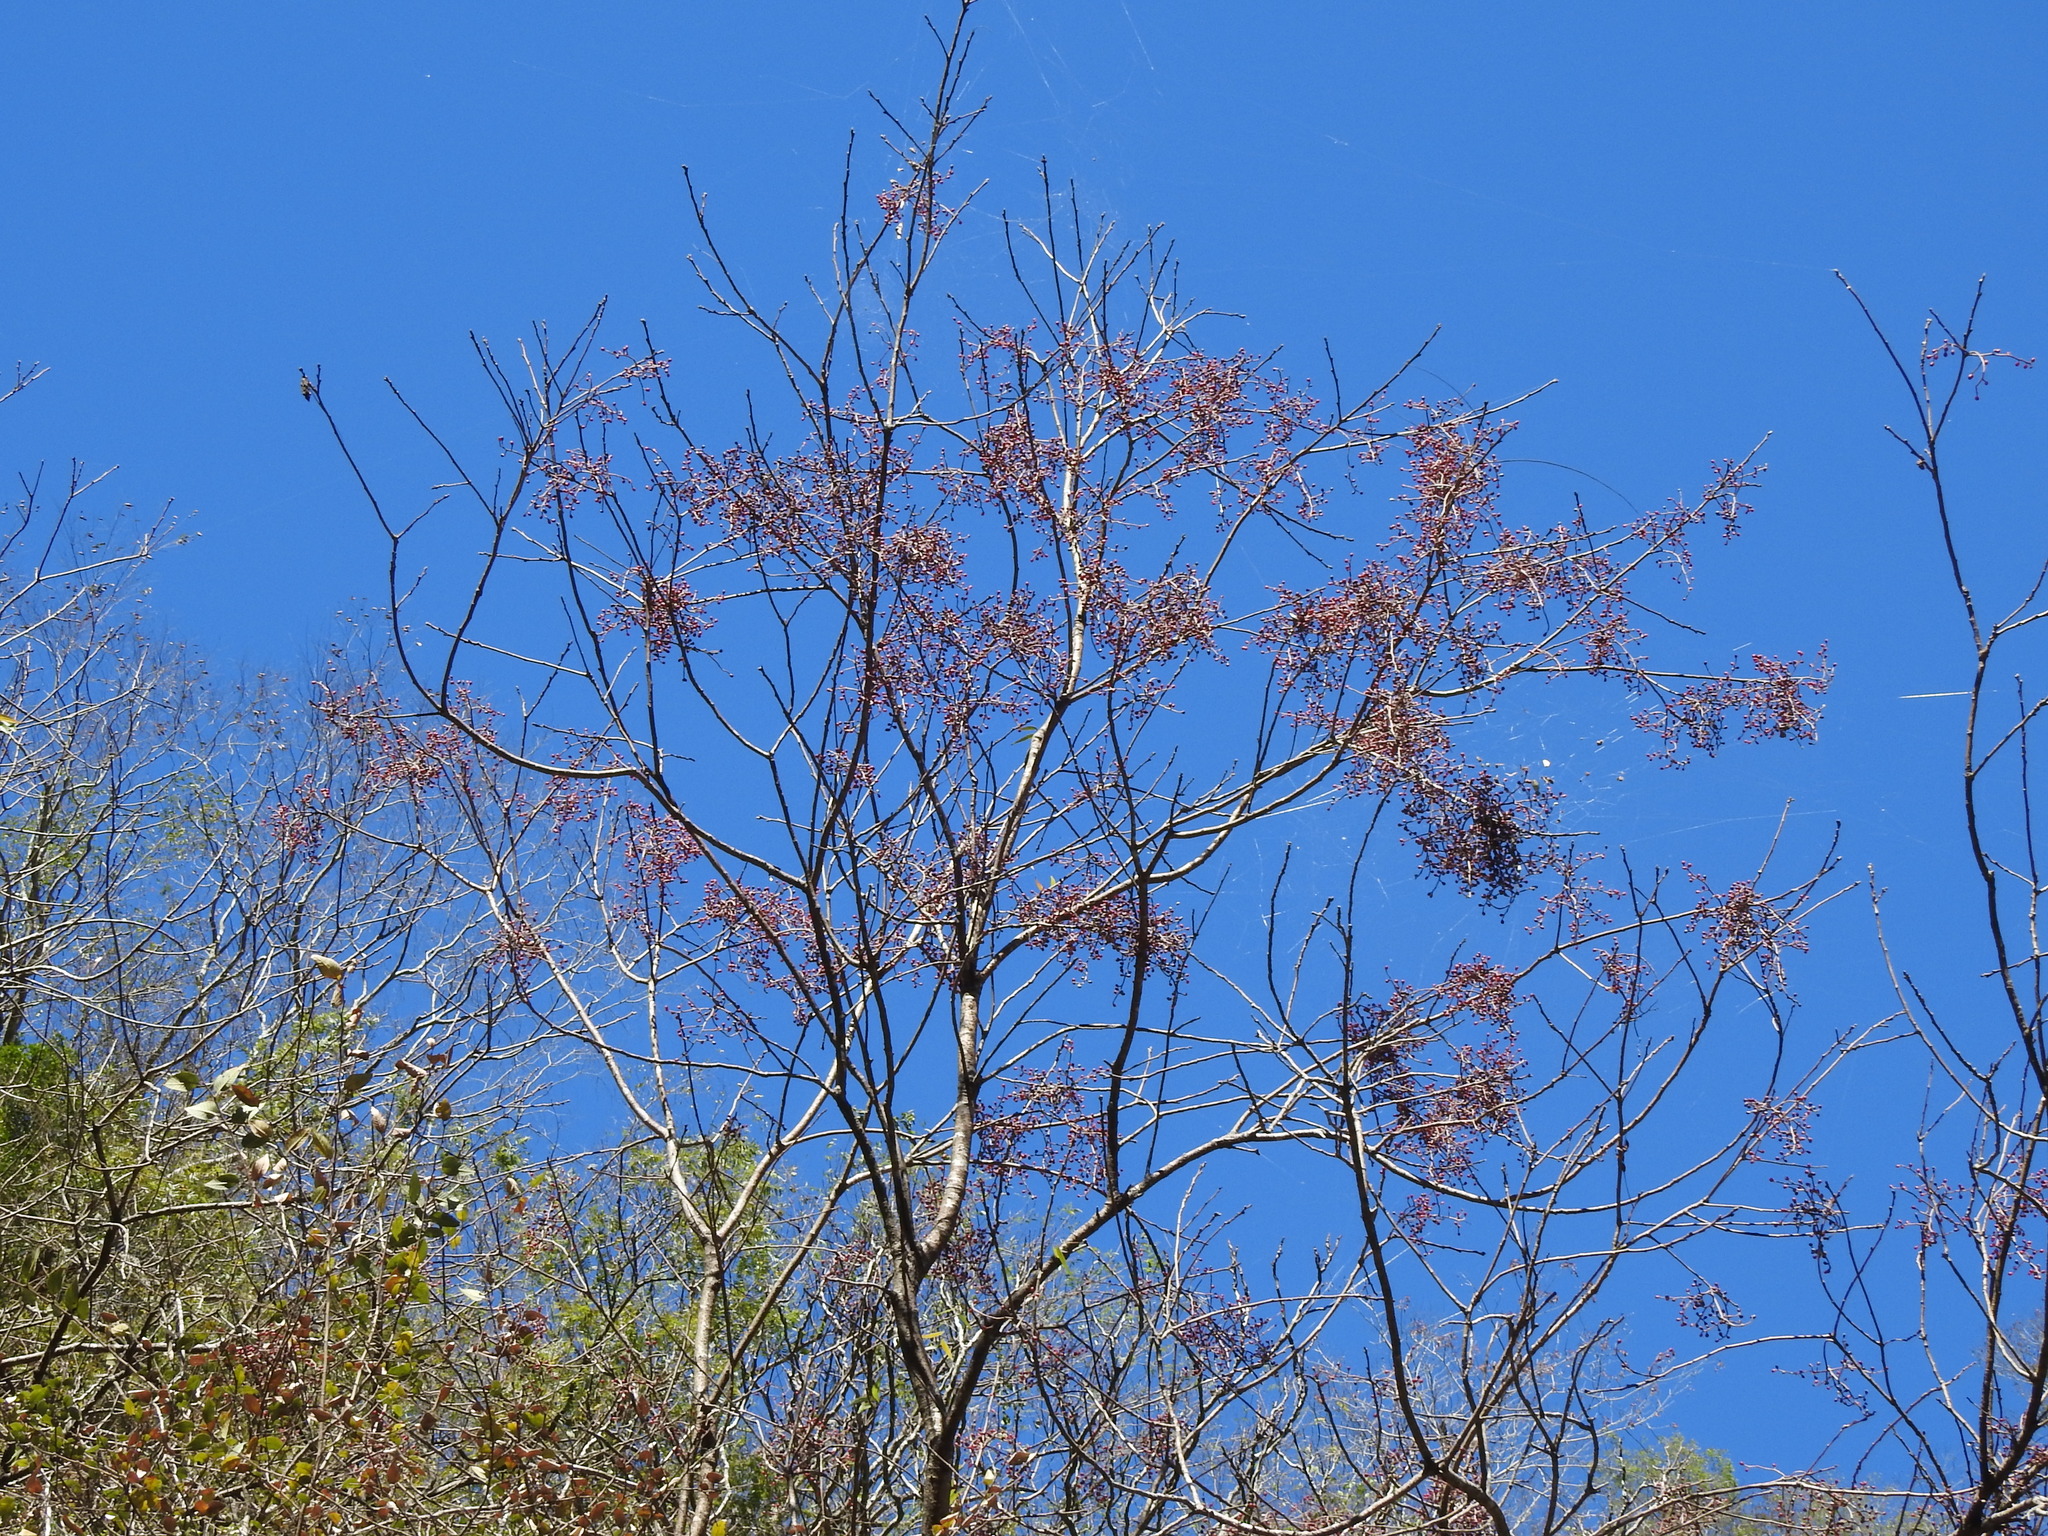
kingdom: Plantae
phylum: Tracheophyta
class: Magnoliopsida
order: Sapindales
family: Anacardiaceae
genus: Pistacia
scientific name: Pistacia chinensis
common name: Chinese pistache
